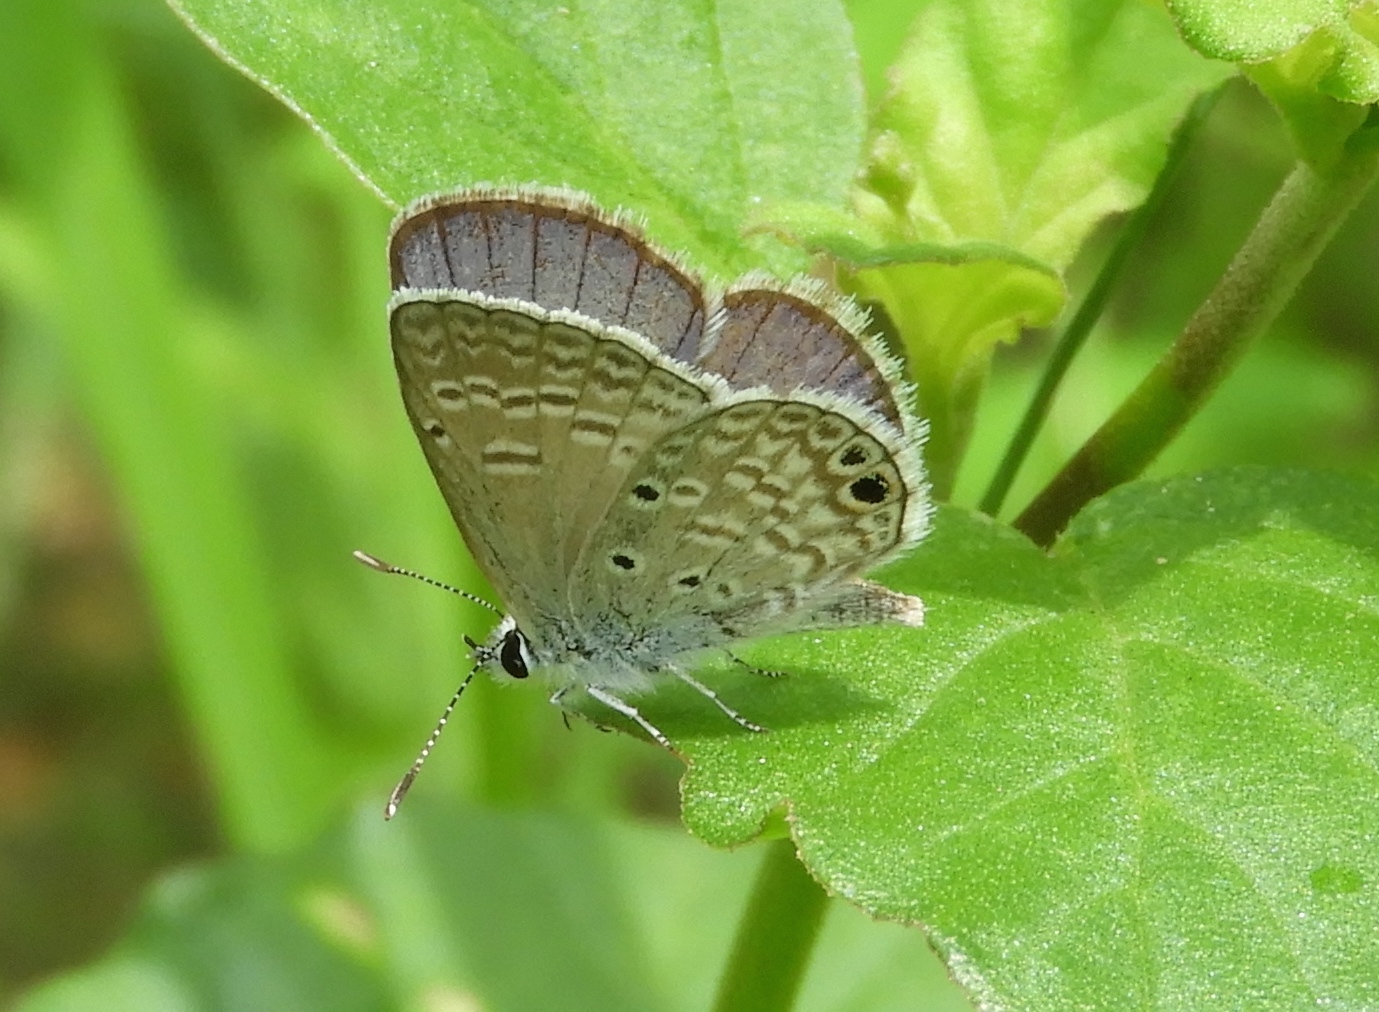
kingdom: Animalia
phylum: Arthropoda
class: Insecta
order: Lepidoptera
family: Lycaenidae
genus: Echinargus
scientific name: Echinargus isola
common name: Reakirt's blue
